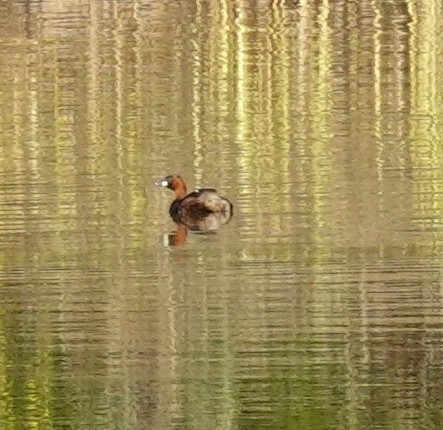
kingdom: Animalia
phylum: Chordata
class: Aves
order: Podicipediformes
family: Podicipedidae
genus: Tachybaptus
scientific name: Tachybaptus ruficollis
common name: Little grebe
